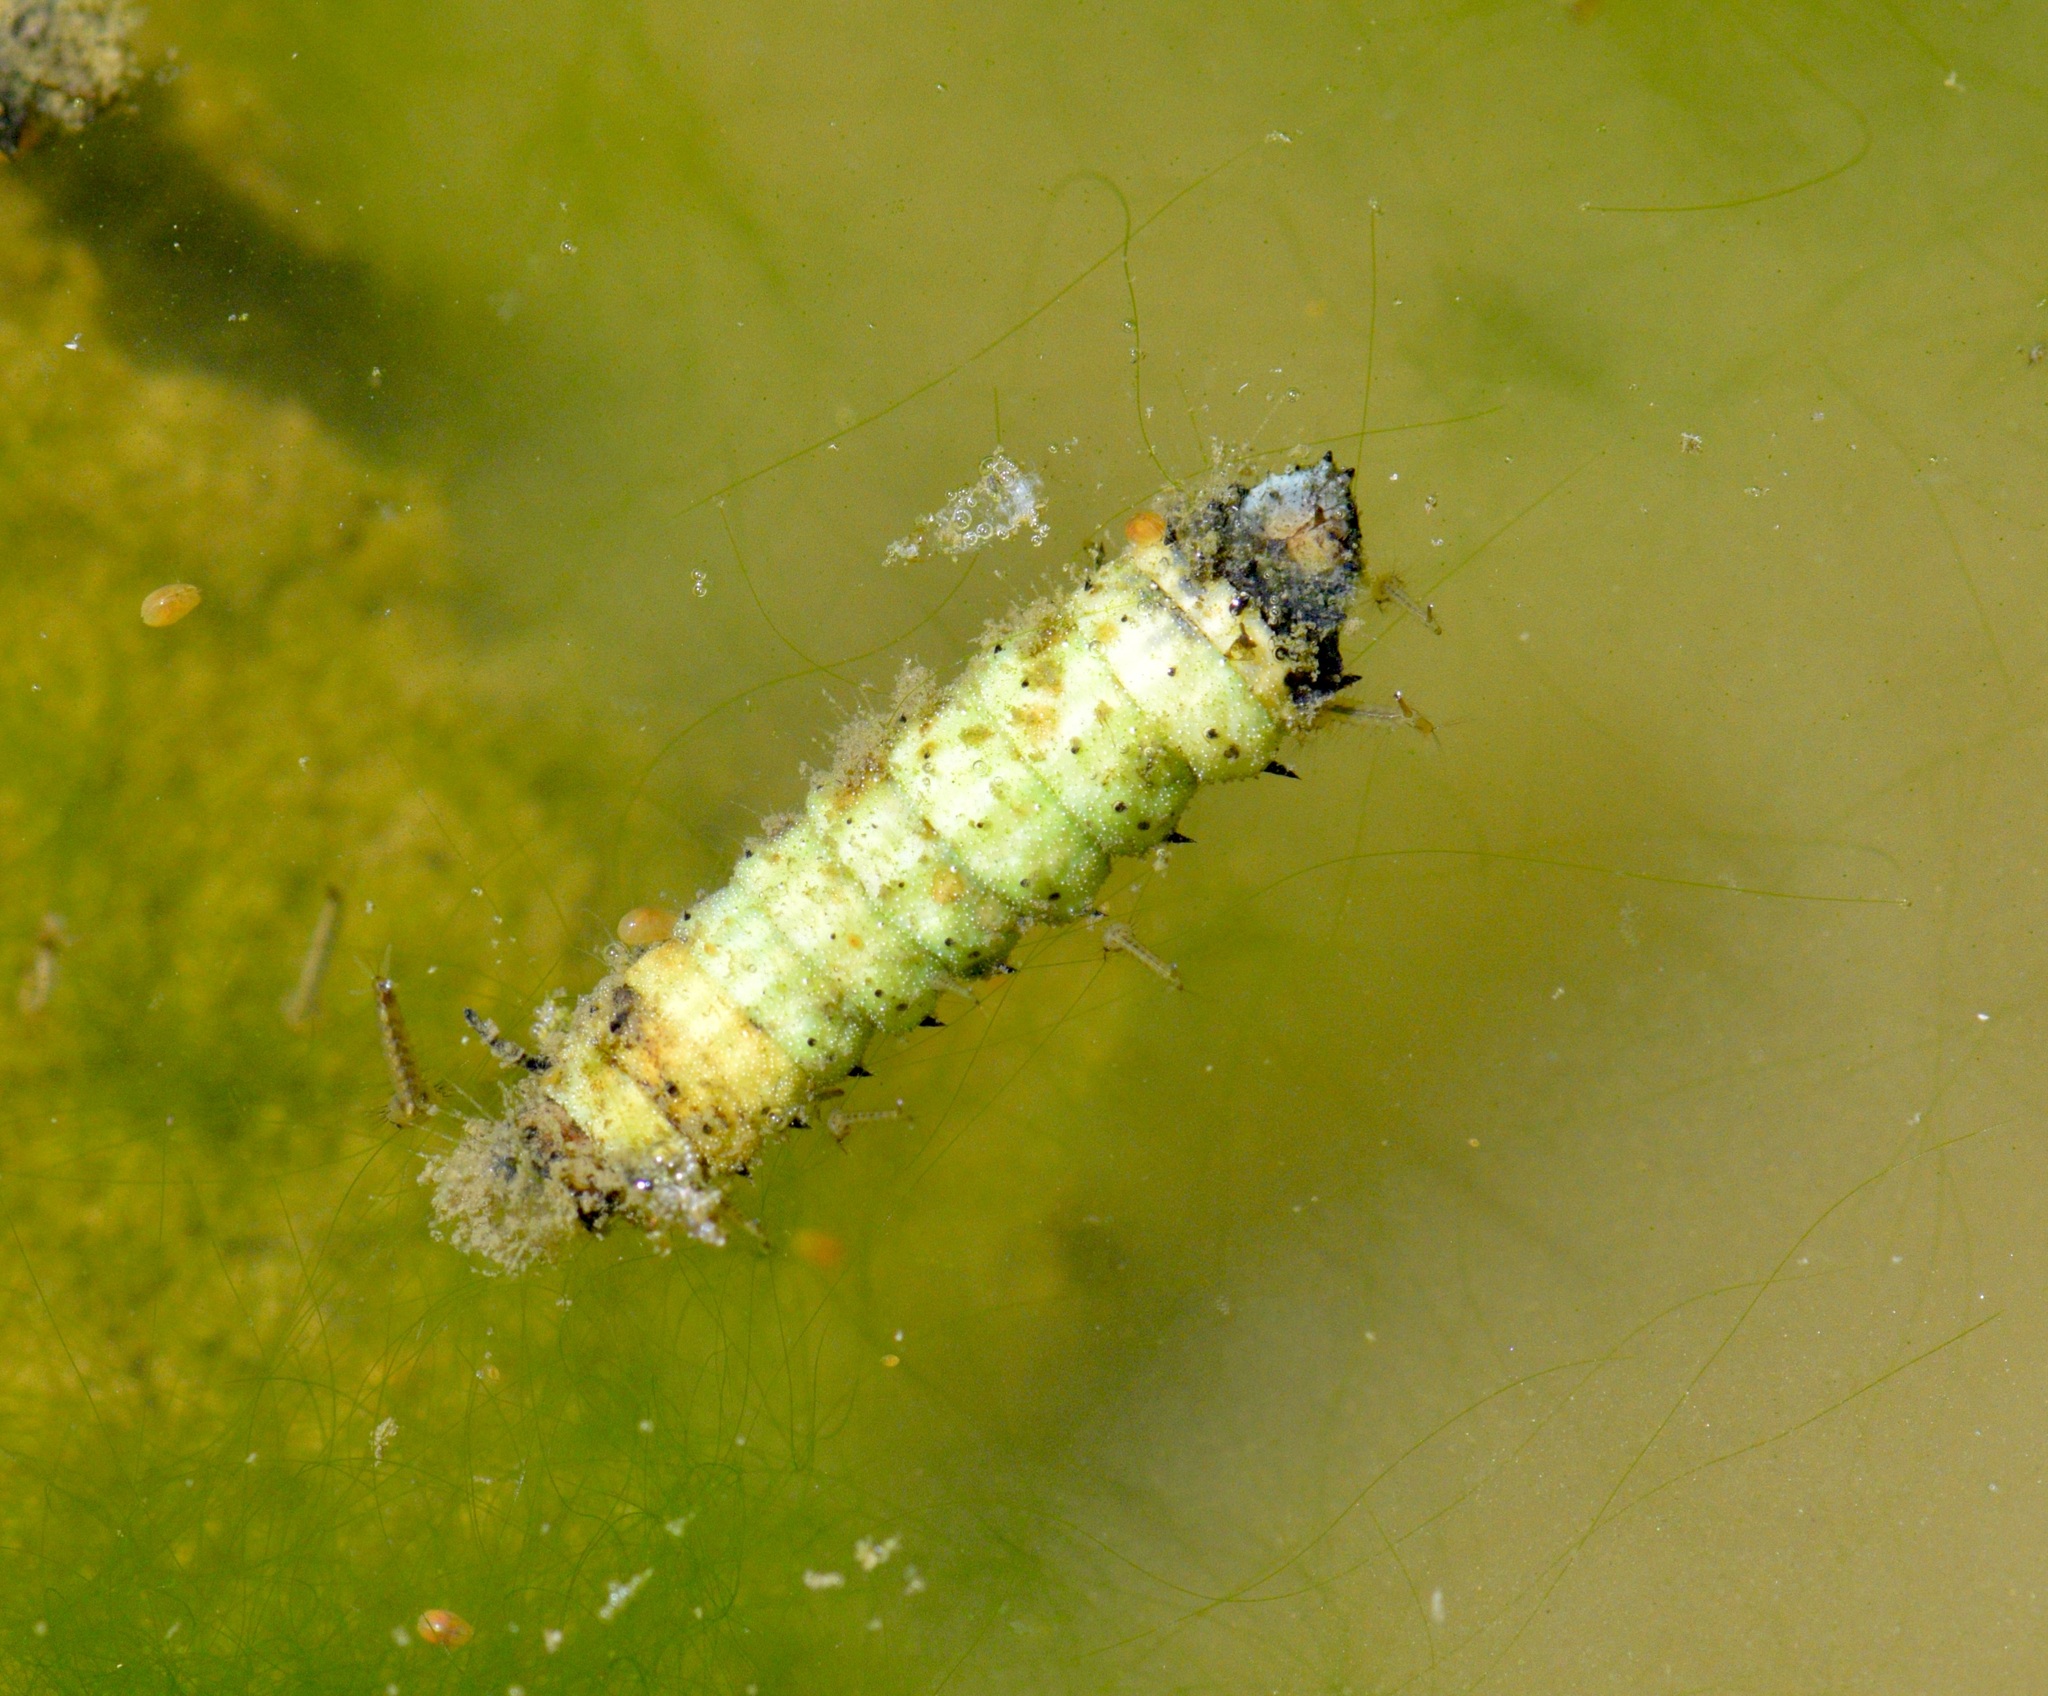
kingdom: Animalia
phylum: Arthropoda
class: Insecta
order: Lepidoptera
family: Saturniidae
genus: Dryocampa
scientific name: Dryocampa rubicunda
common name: Rosy maple moth
